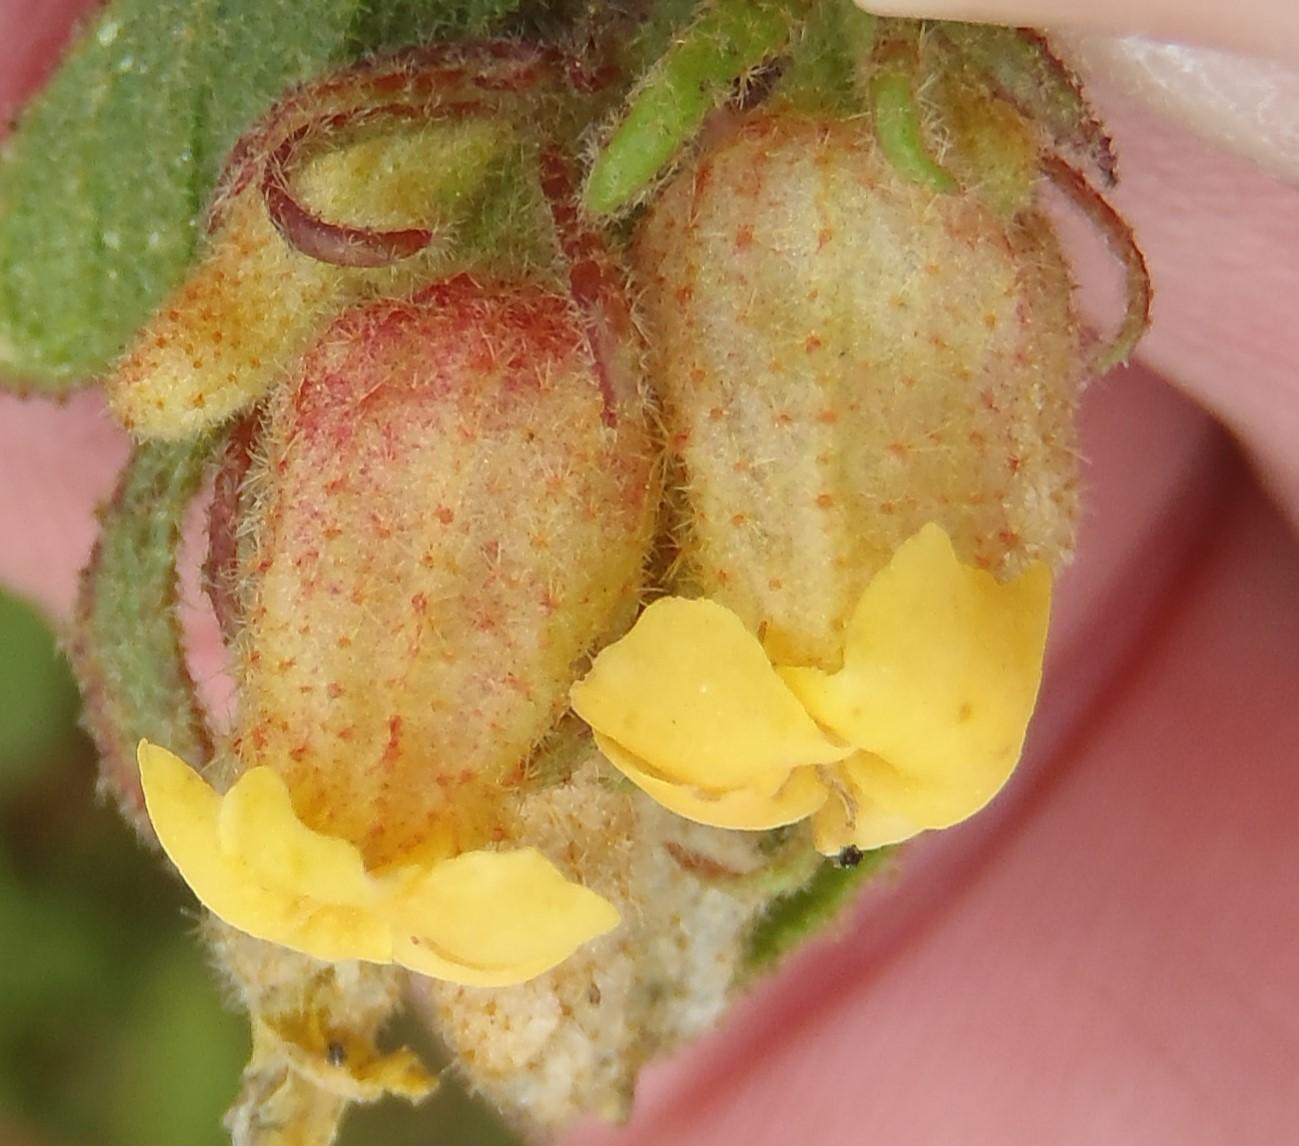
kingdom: Plantae
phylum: Tracheophyta
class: Magnoliopsida
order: Malvales
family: Malvaceae
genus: Hermannia
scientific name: Hermannia salviifolia
